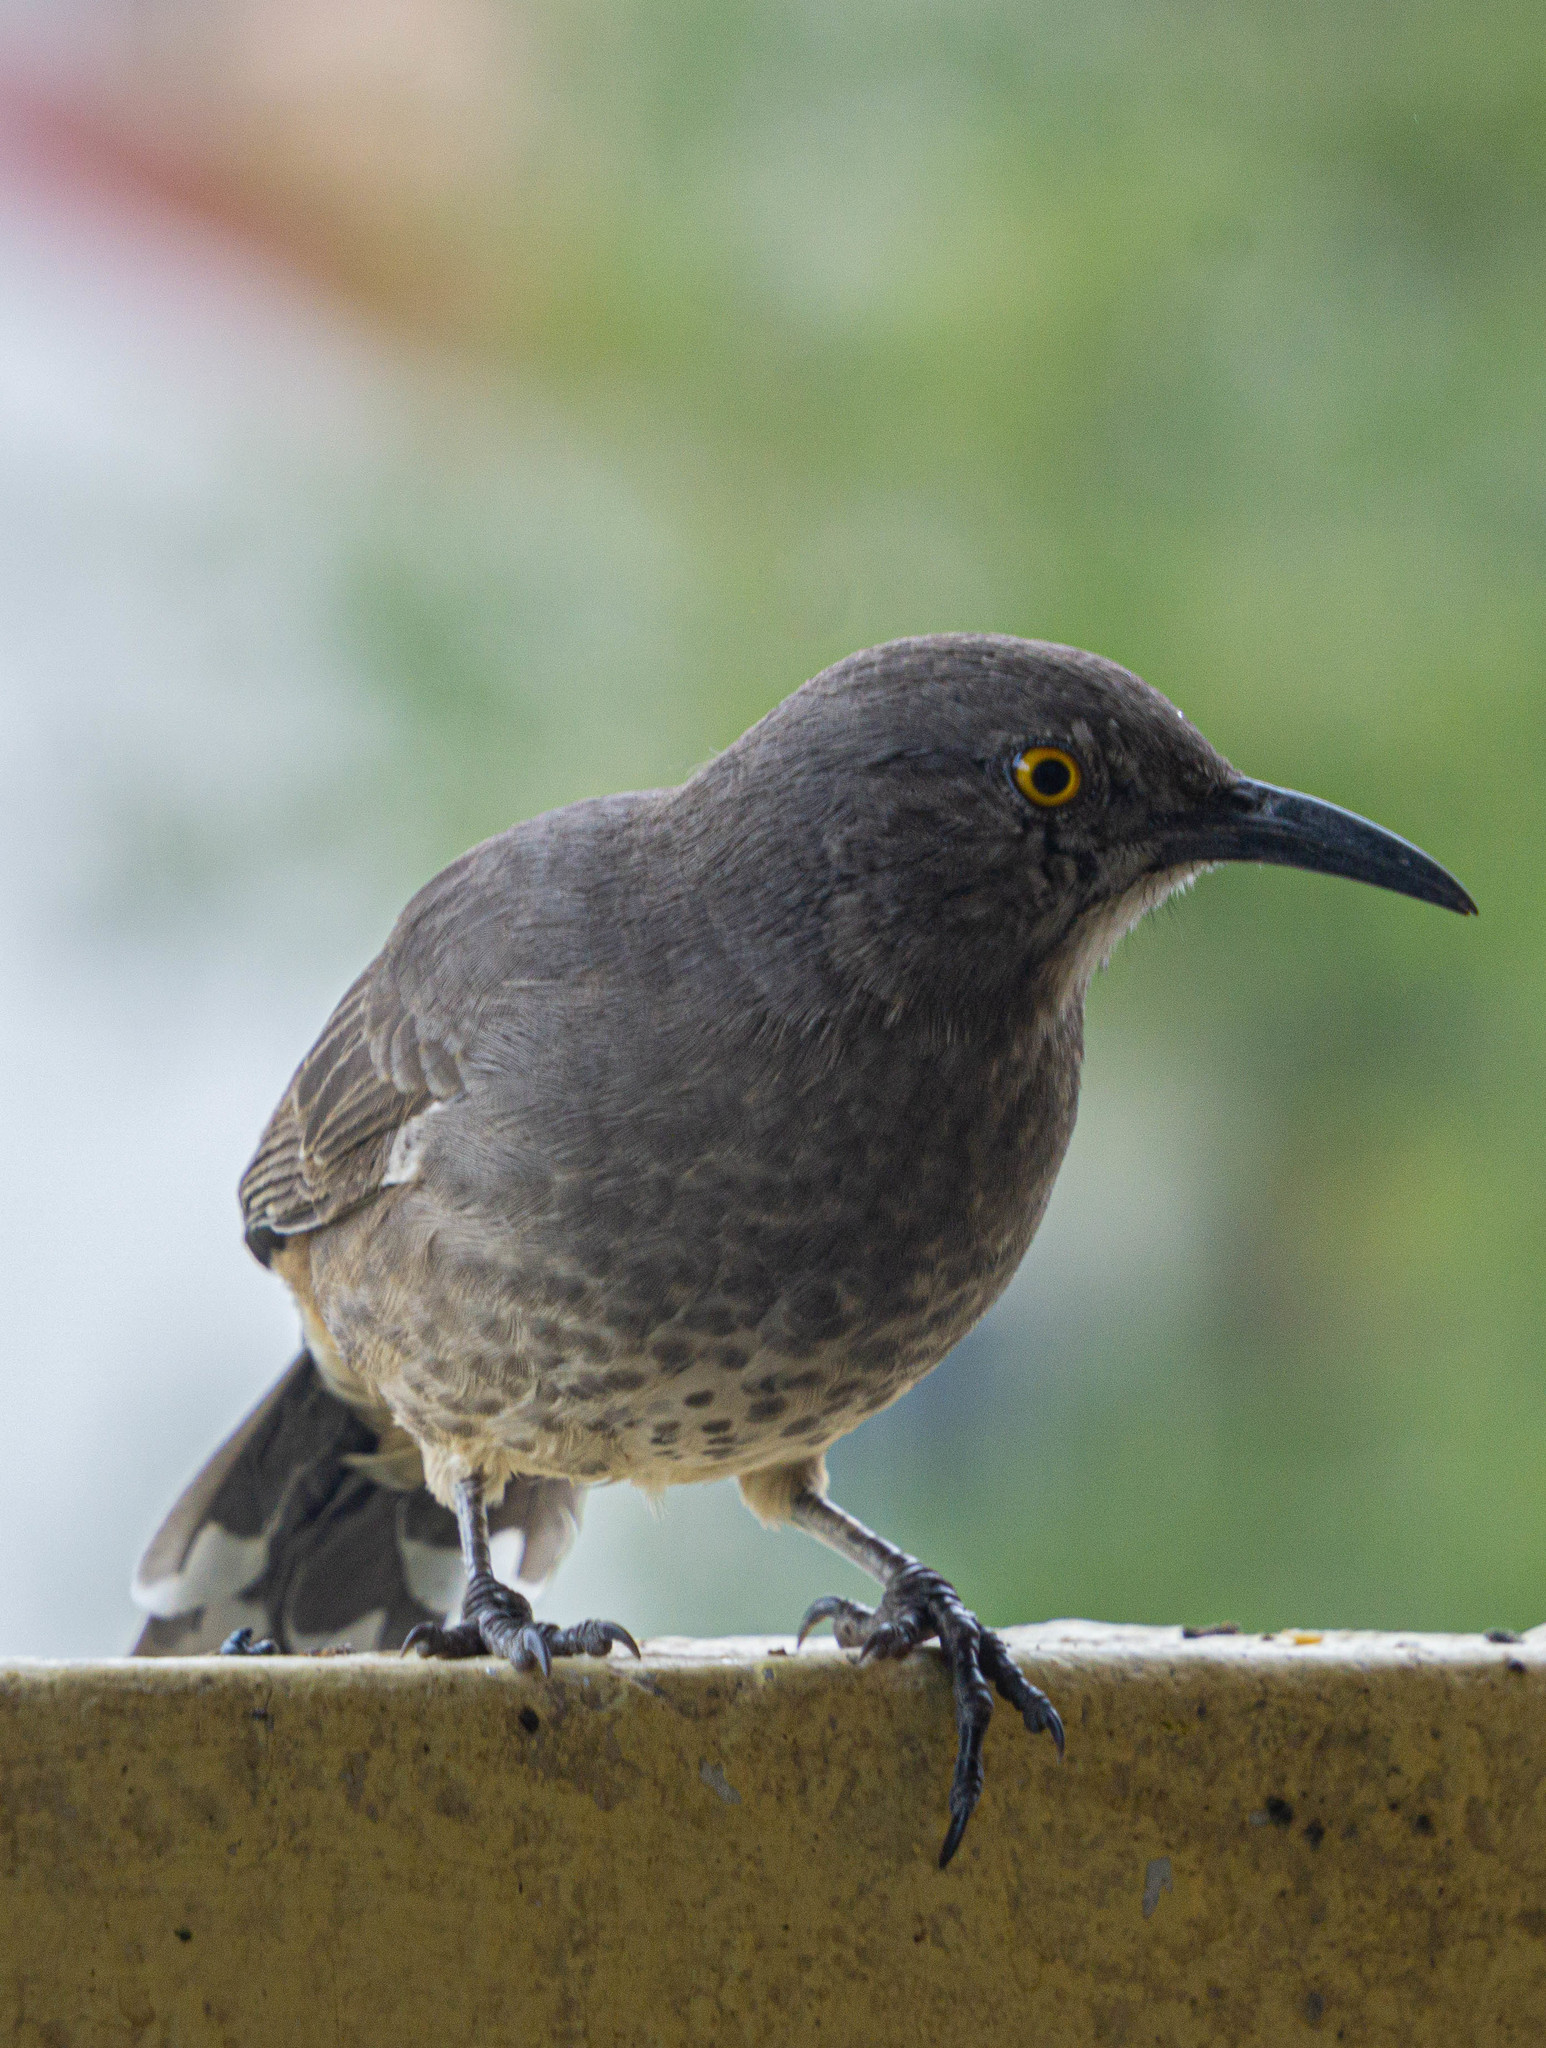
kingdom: Animalia
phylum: Chordata
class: Aves
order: Passeriformes
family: Mimidae
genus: Toxostoma
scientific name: Toxostoma curvirostre
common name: Curve-billed thrasher
